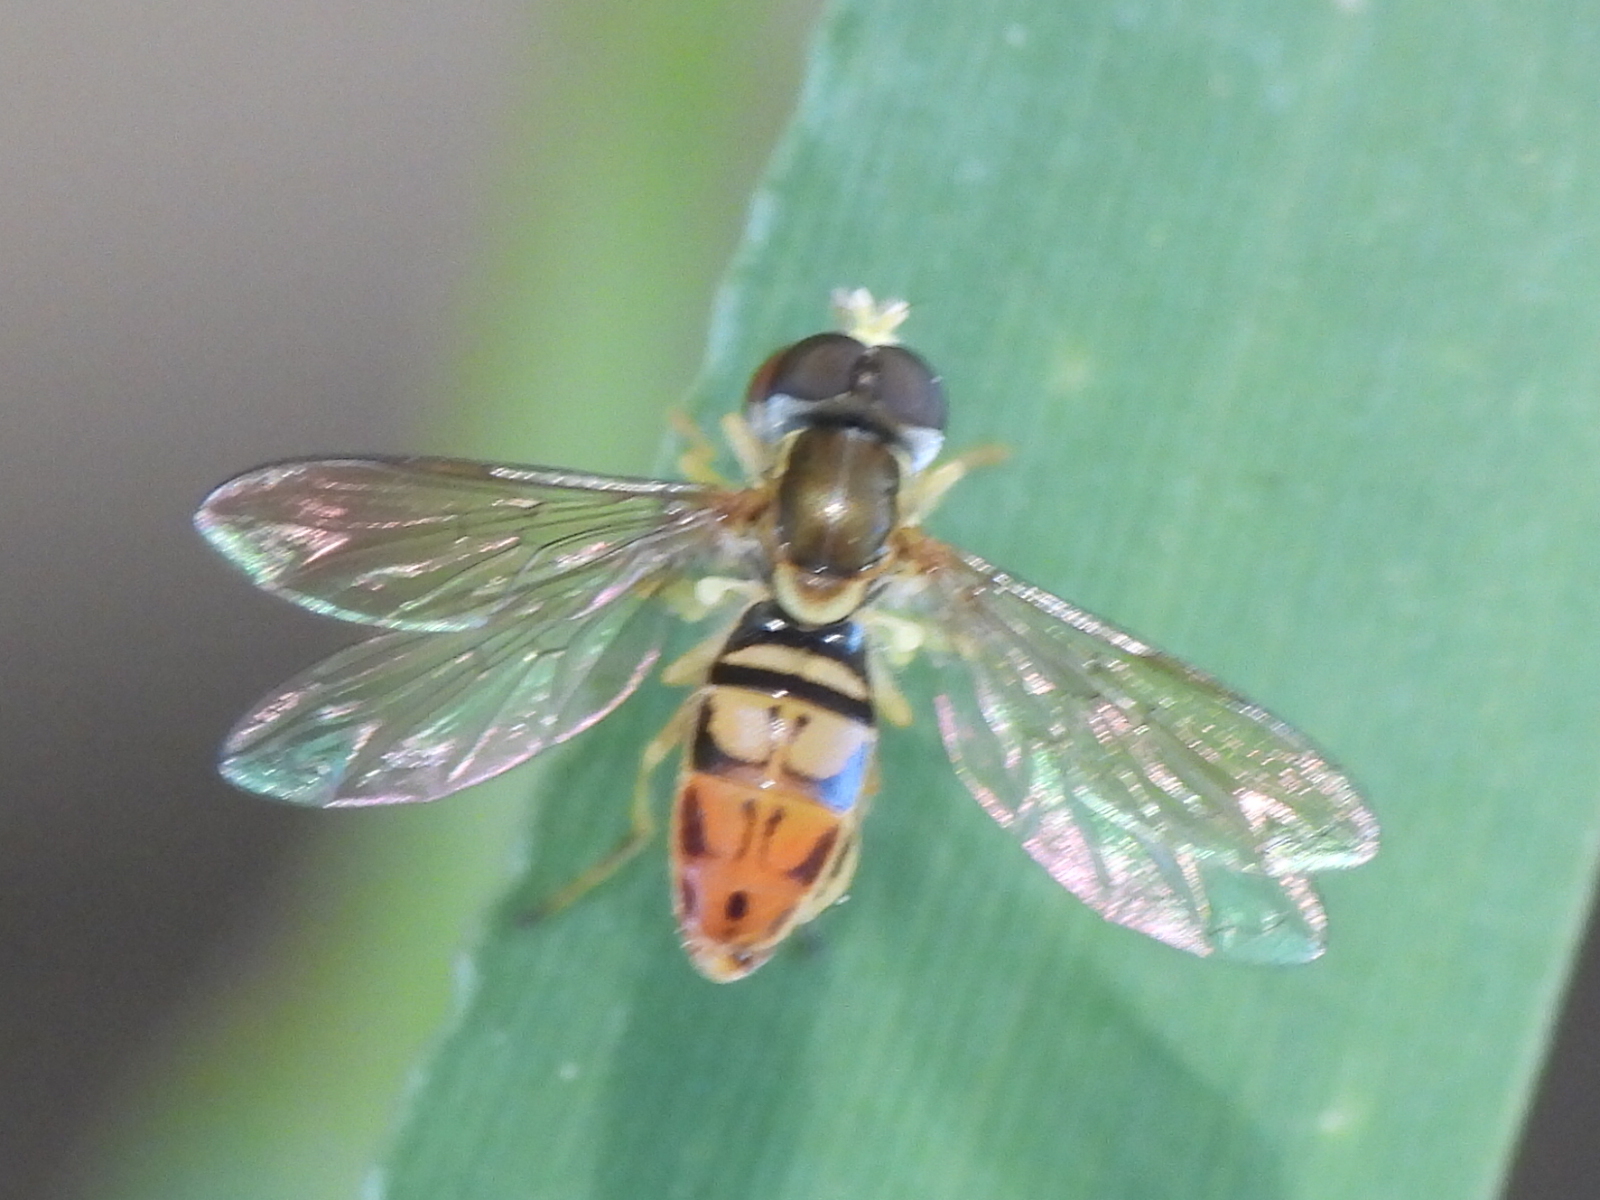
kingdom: Animalia
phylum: Arthropoda
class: Insecta
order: Diptera
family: Syrphidae
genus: Toxomerus
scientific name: Toxomerus marginatus
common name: Syrphid fly
